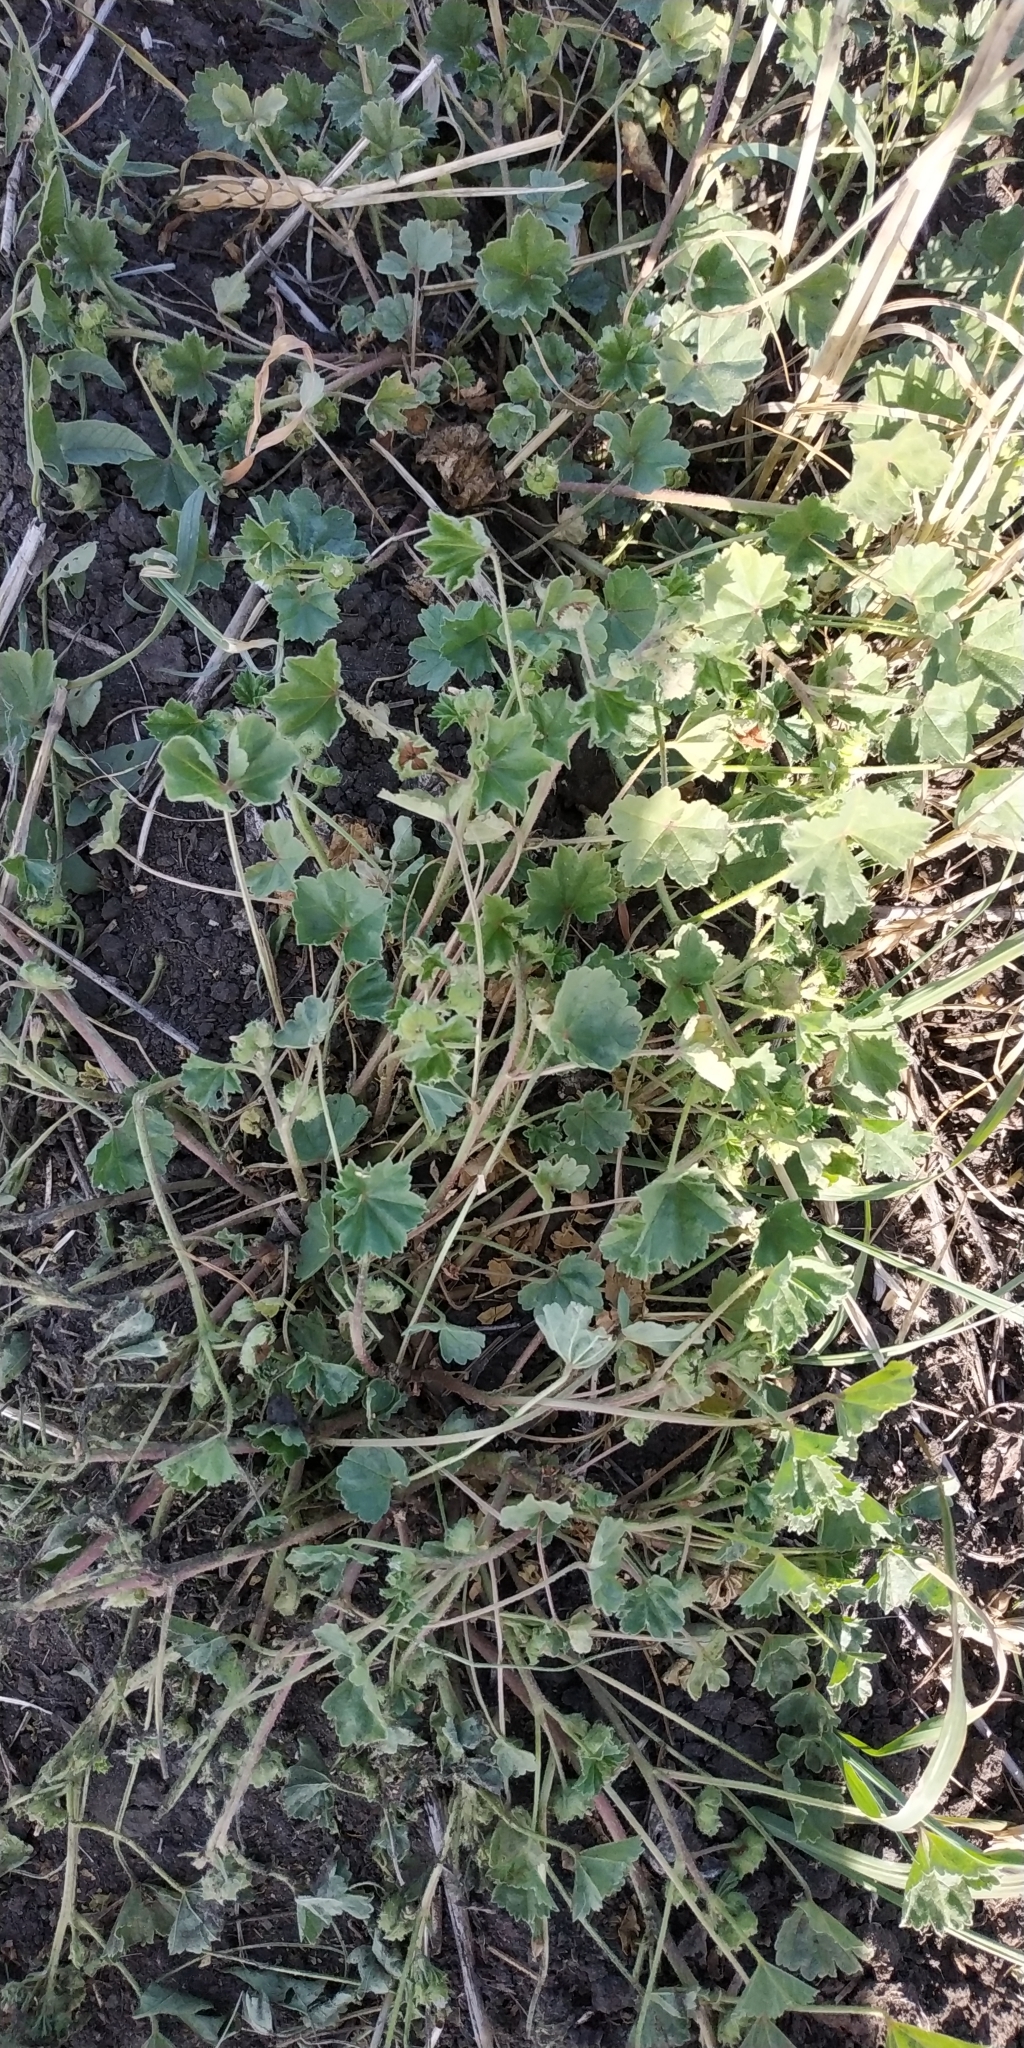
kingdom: Plantae
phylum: Tracheophyta
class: Magnoliopsida
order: Malvales
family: Malvaceae
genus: Malva
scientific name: Malva pusilla
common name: Small mallow
